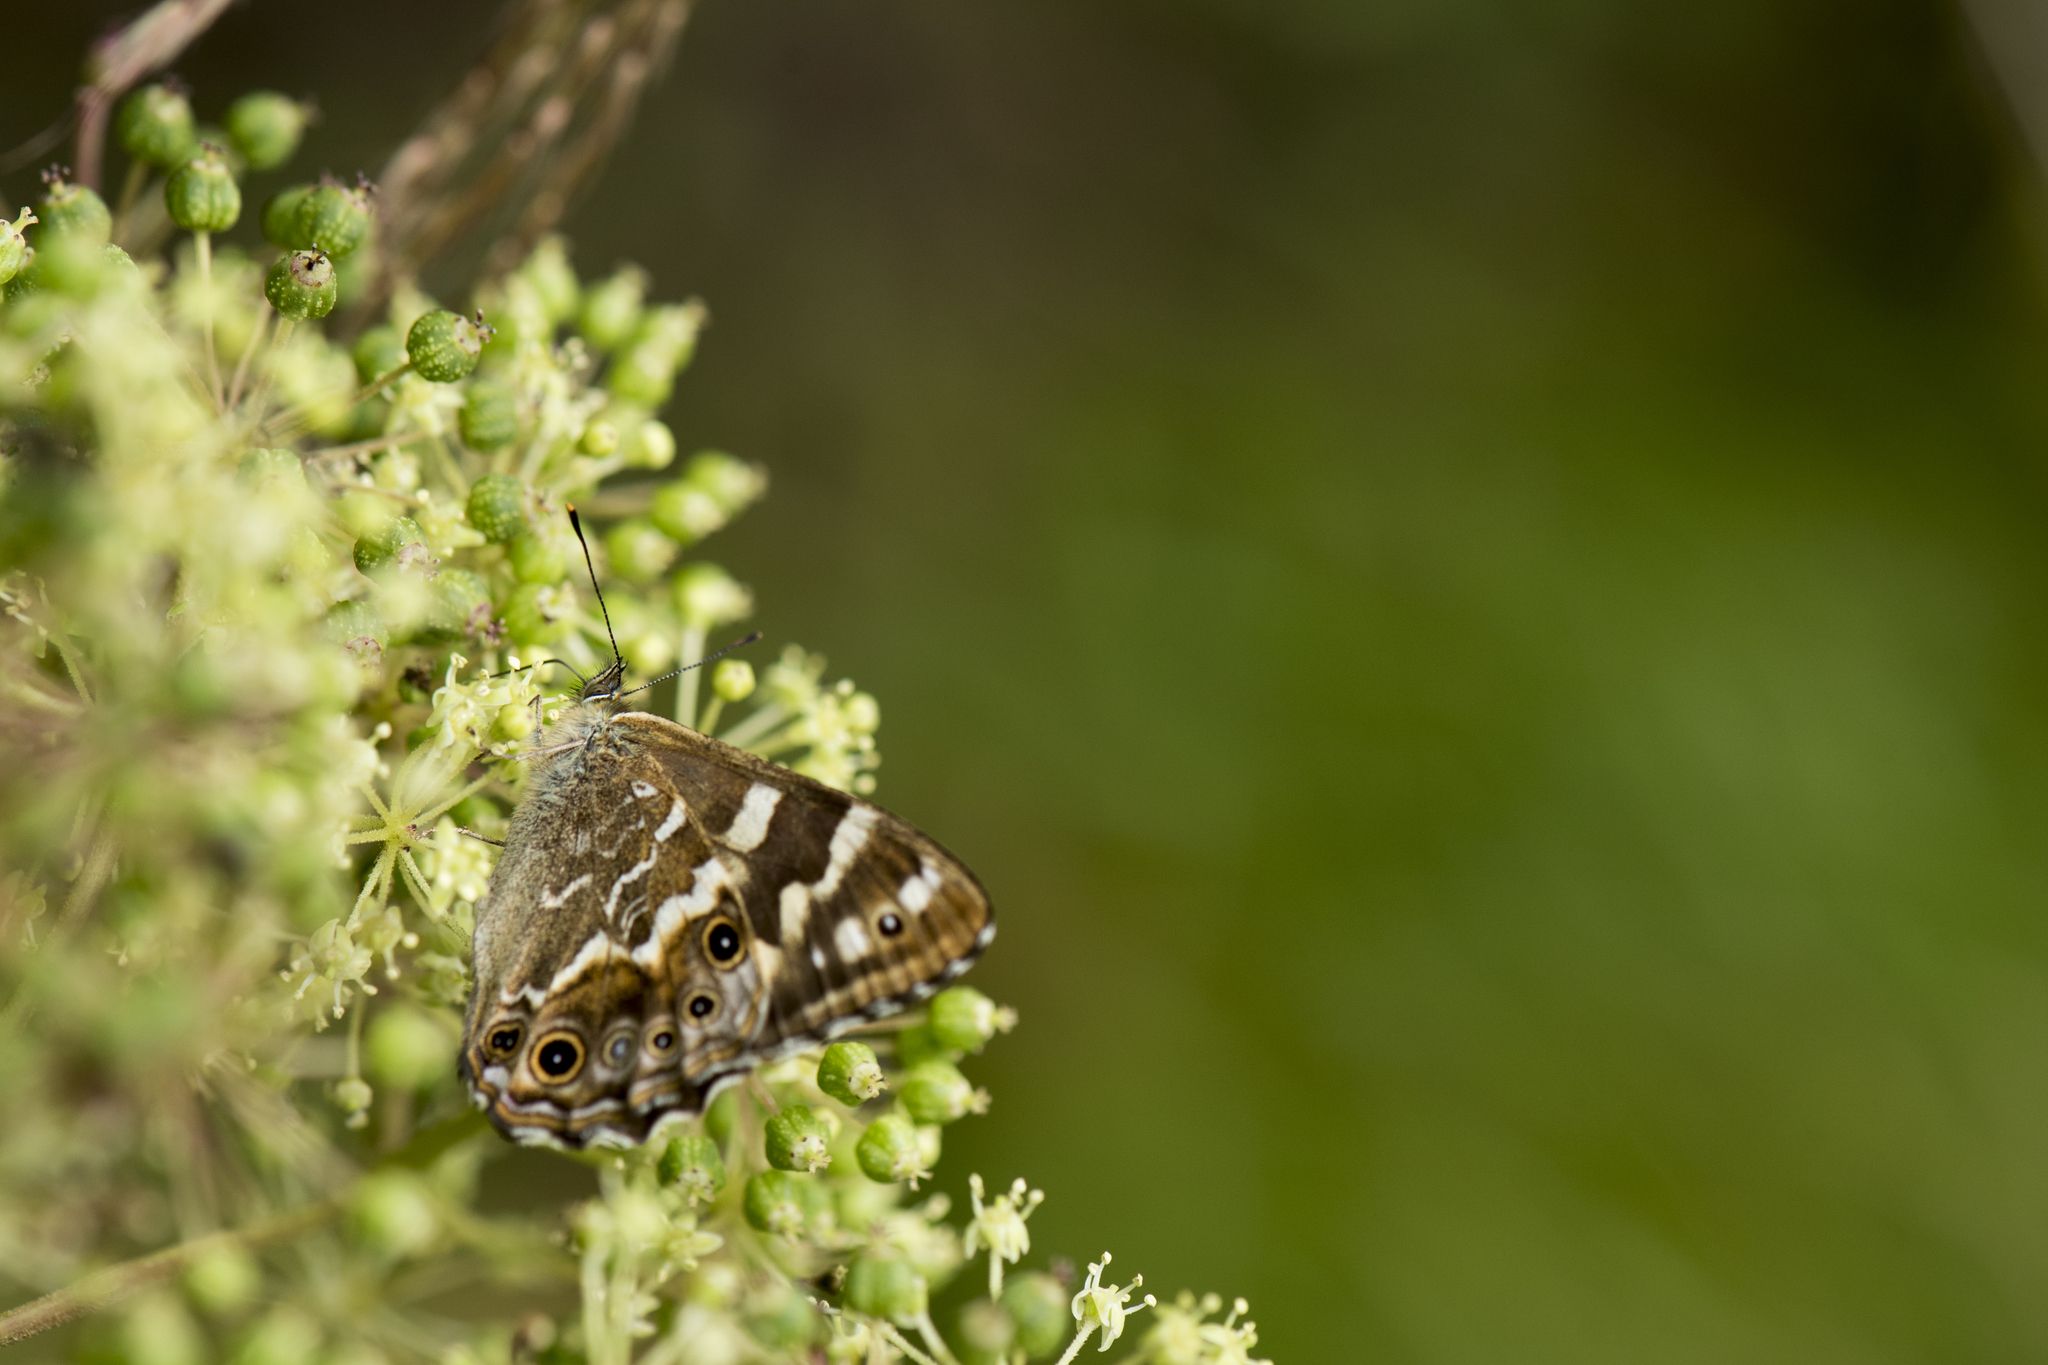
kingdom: Animalia
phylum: Arthropoda
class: Insecta
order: Lepidoptera
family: Nymphalidae
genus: Lethe
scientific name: Lethe europa
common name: Bamboo treebrown
